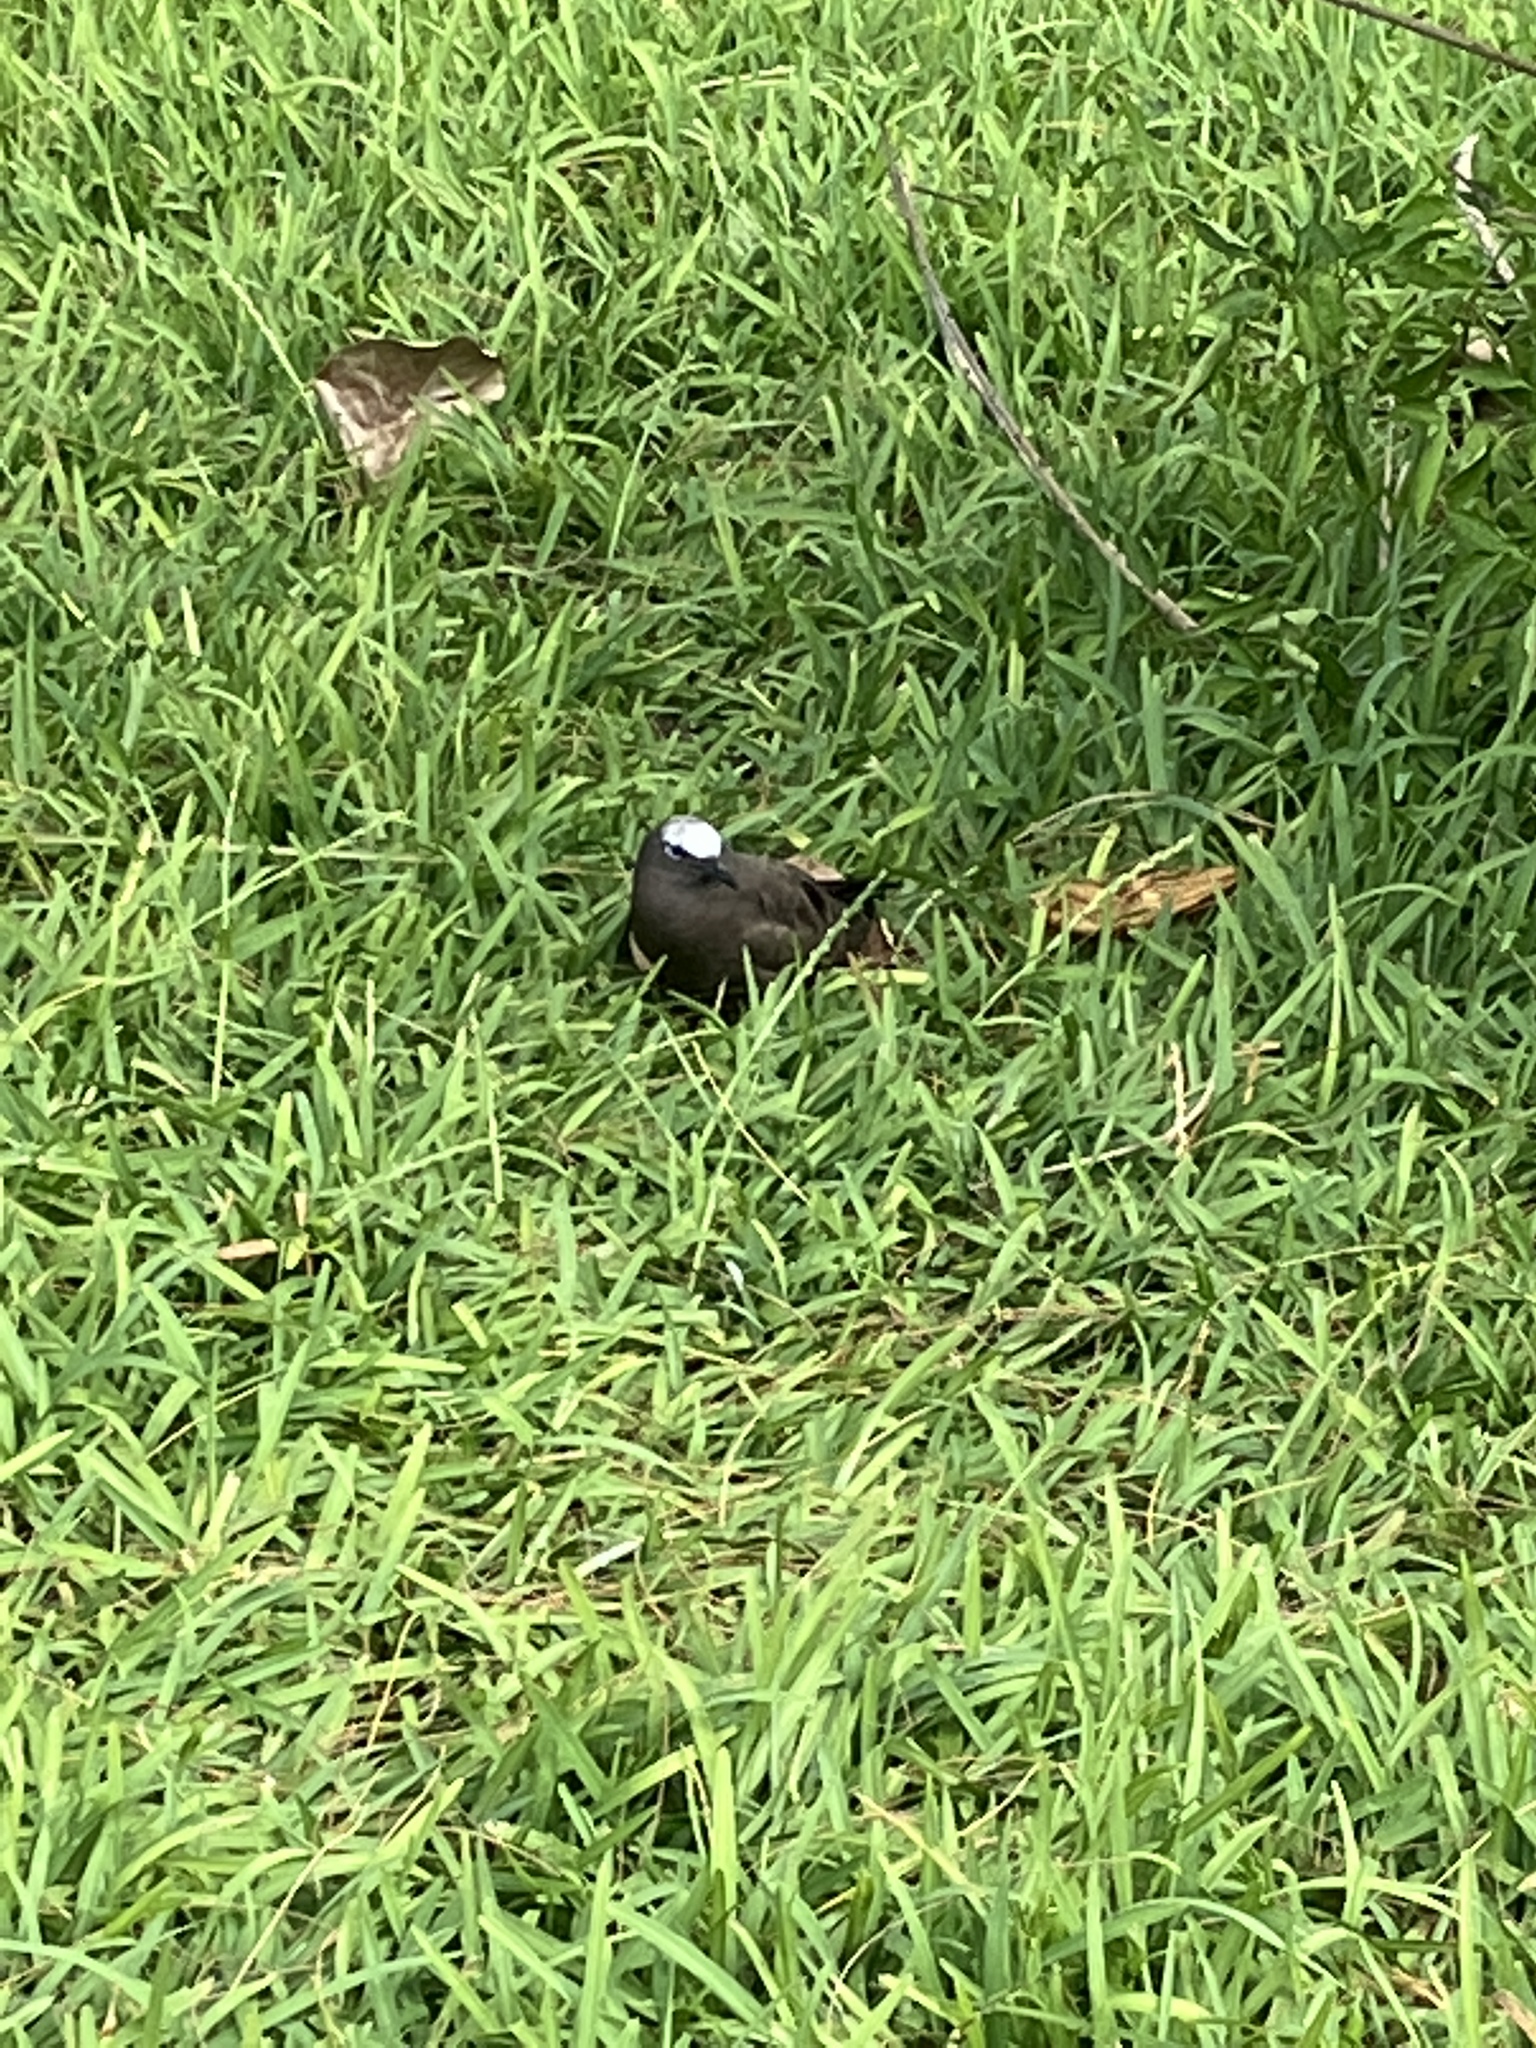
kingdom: Animalia
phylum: Chordata
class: Aves
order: Charadriiformes
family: Laridae
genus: Anous
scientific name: Anous stolidus
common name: Brown noddy
